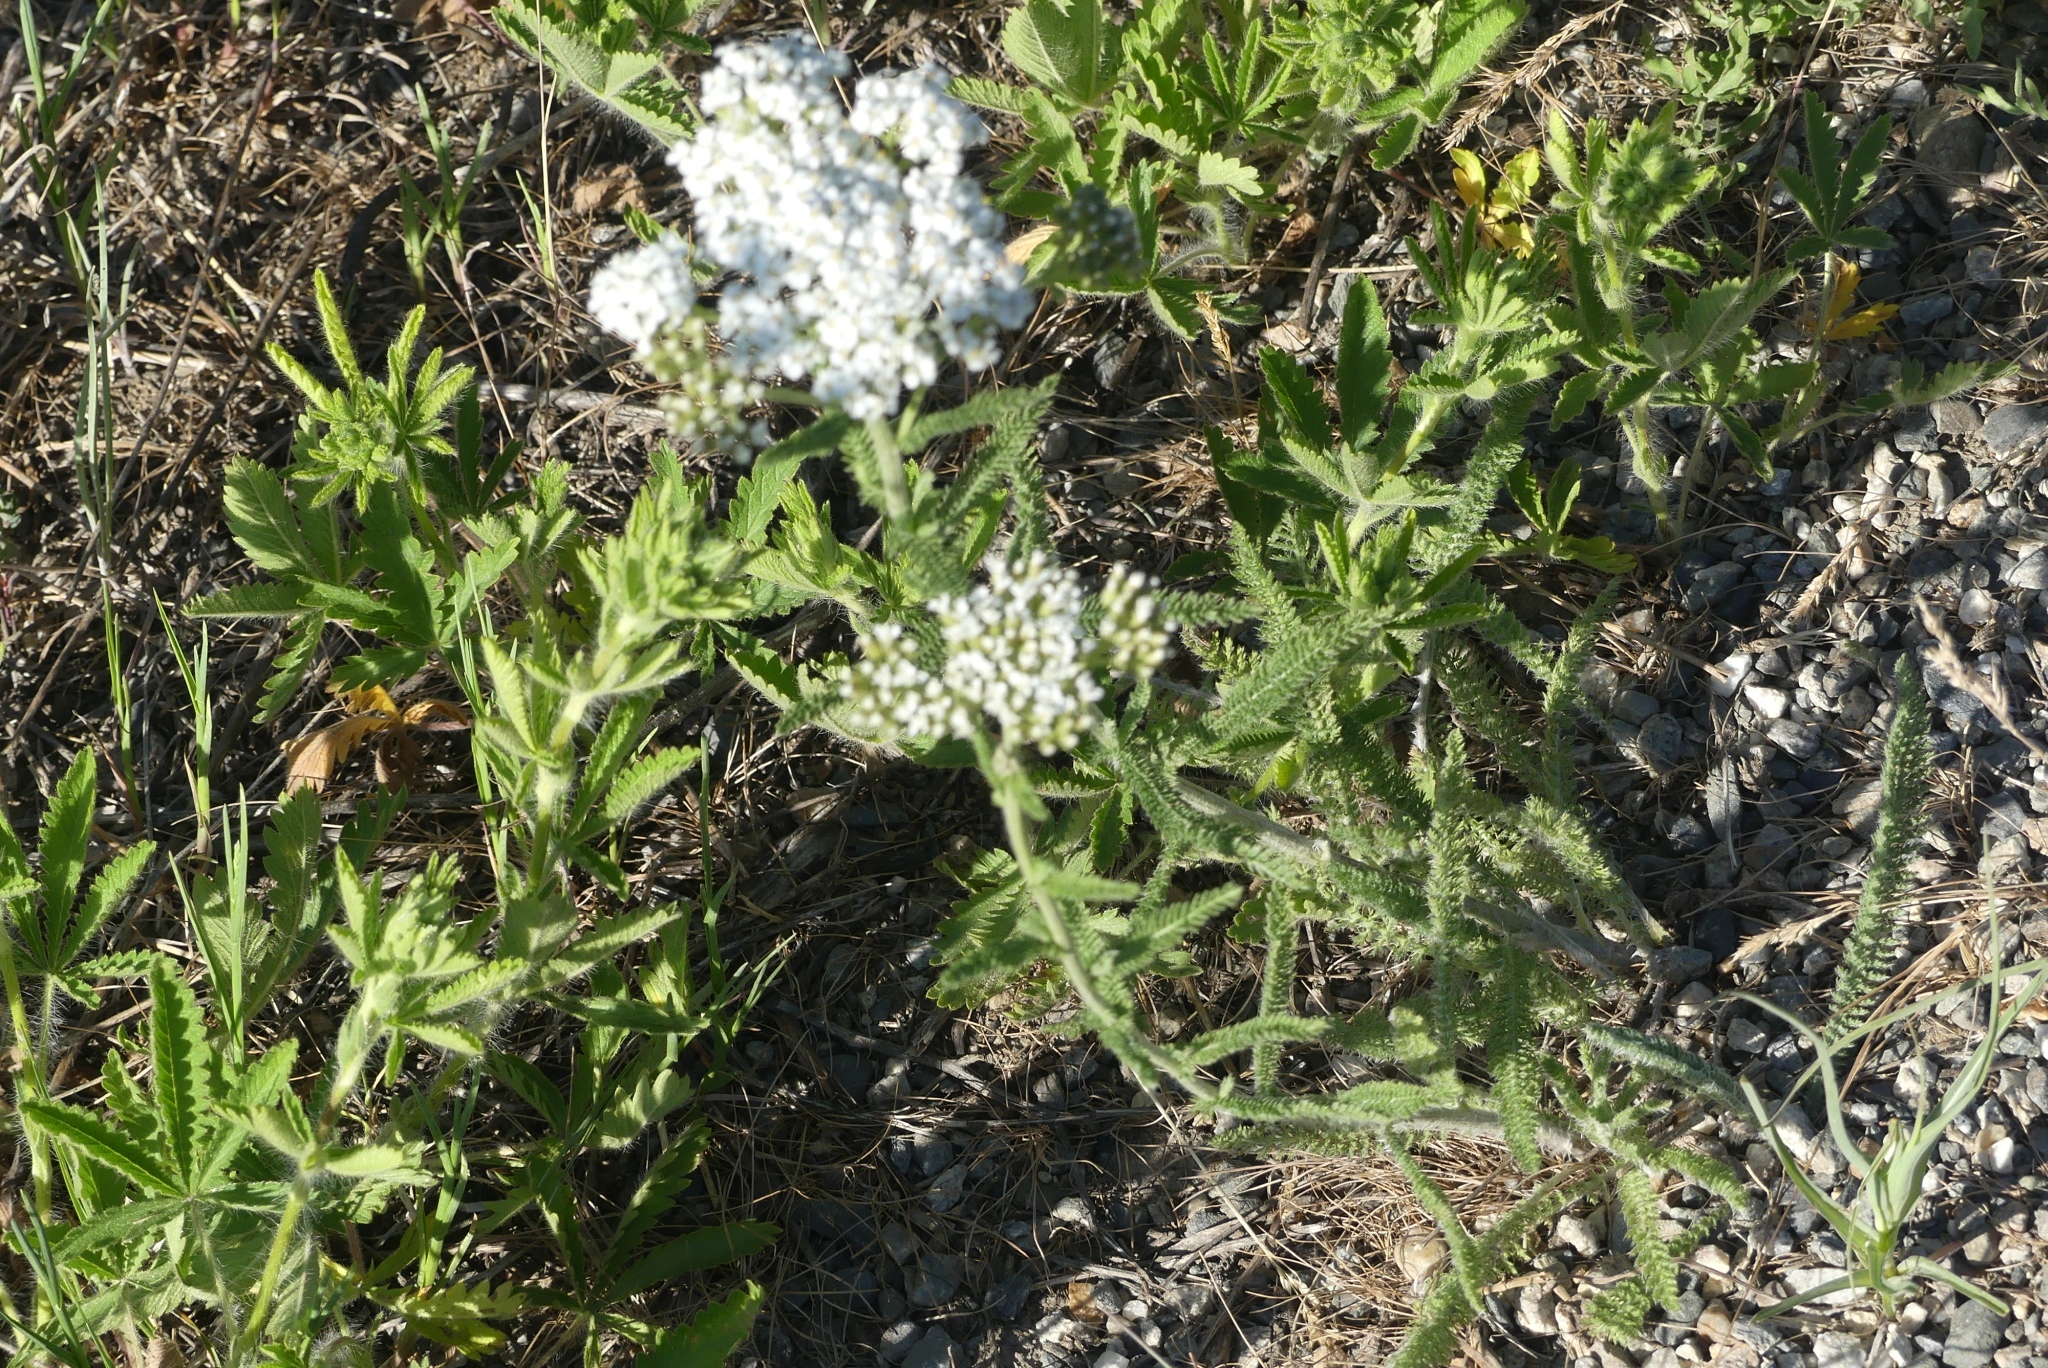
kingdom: Plantae
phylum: Tracheophyta
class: Magnoliopsida
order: Asterales
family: Asteraceae
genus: Achillea
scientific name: Achillea millefolium
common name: Yarrow
